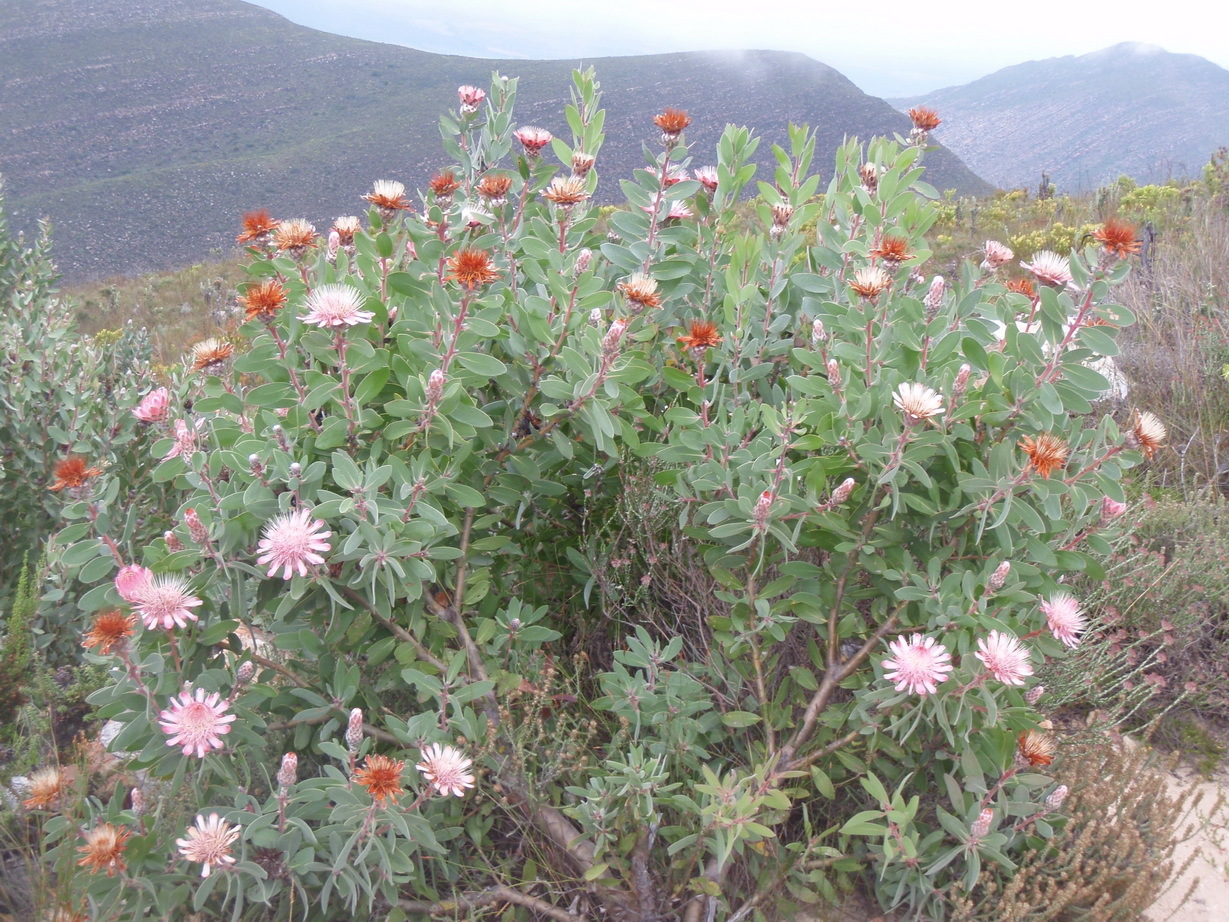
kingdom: Plantae
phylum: Tracheophyta
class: Magnoliopsida
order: Proteales
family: Proteaceae
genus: Protea
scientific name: Protea punctata
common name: Water sugarbush
